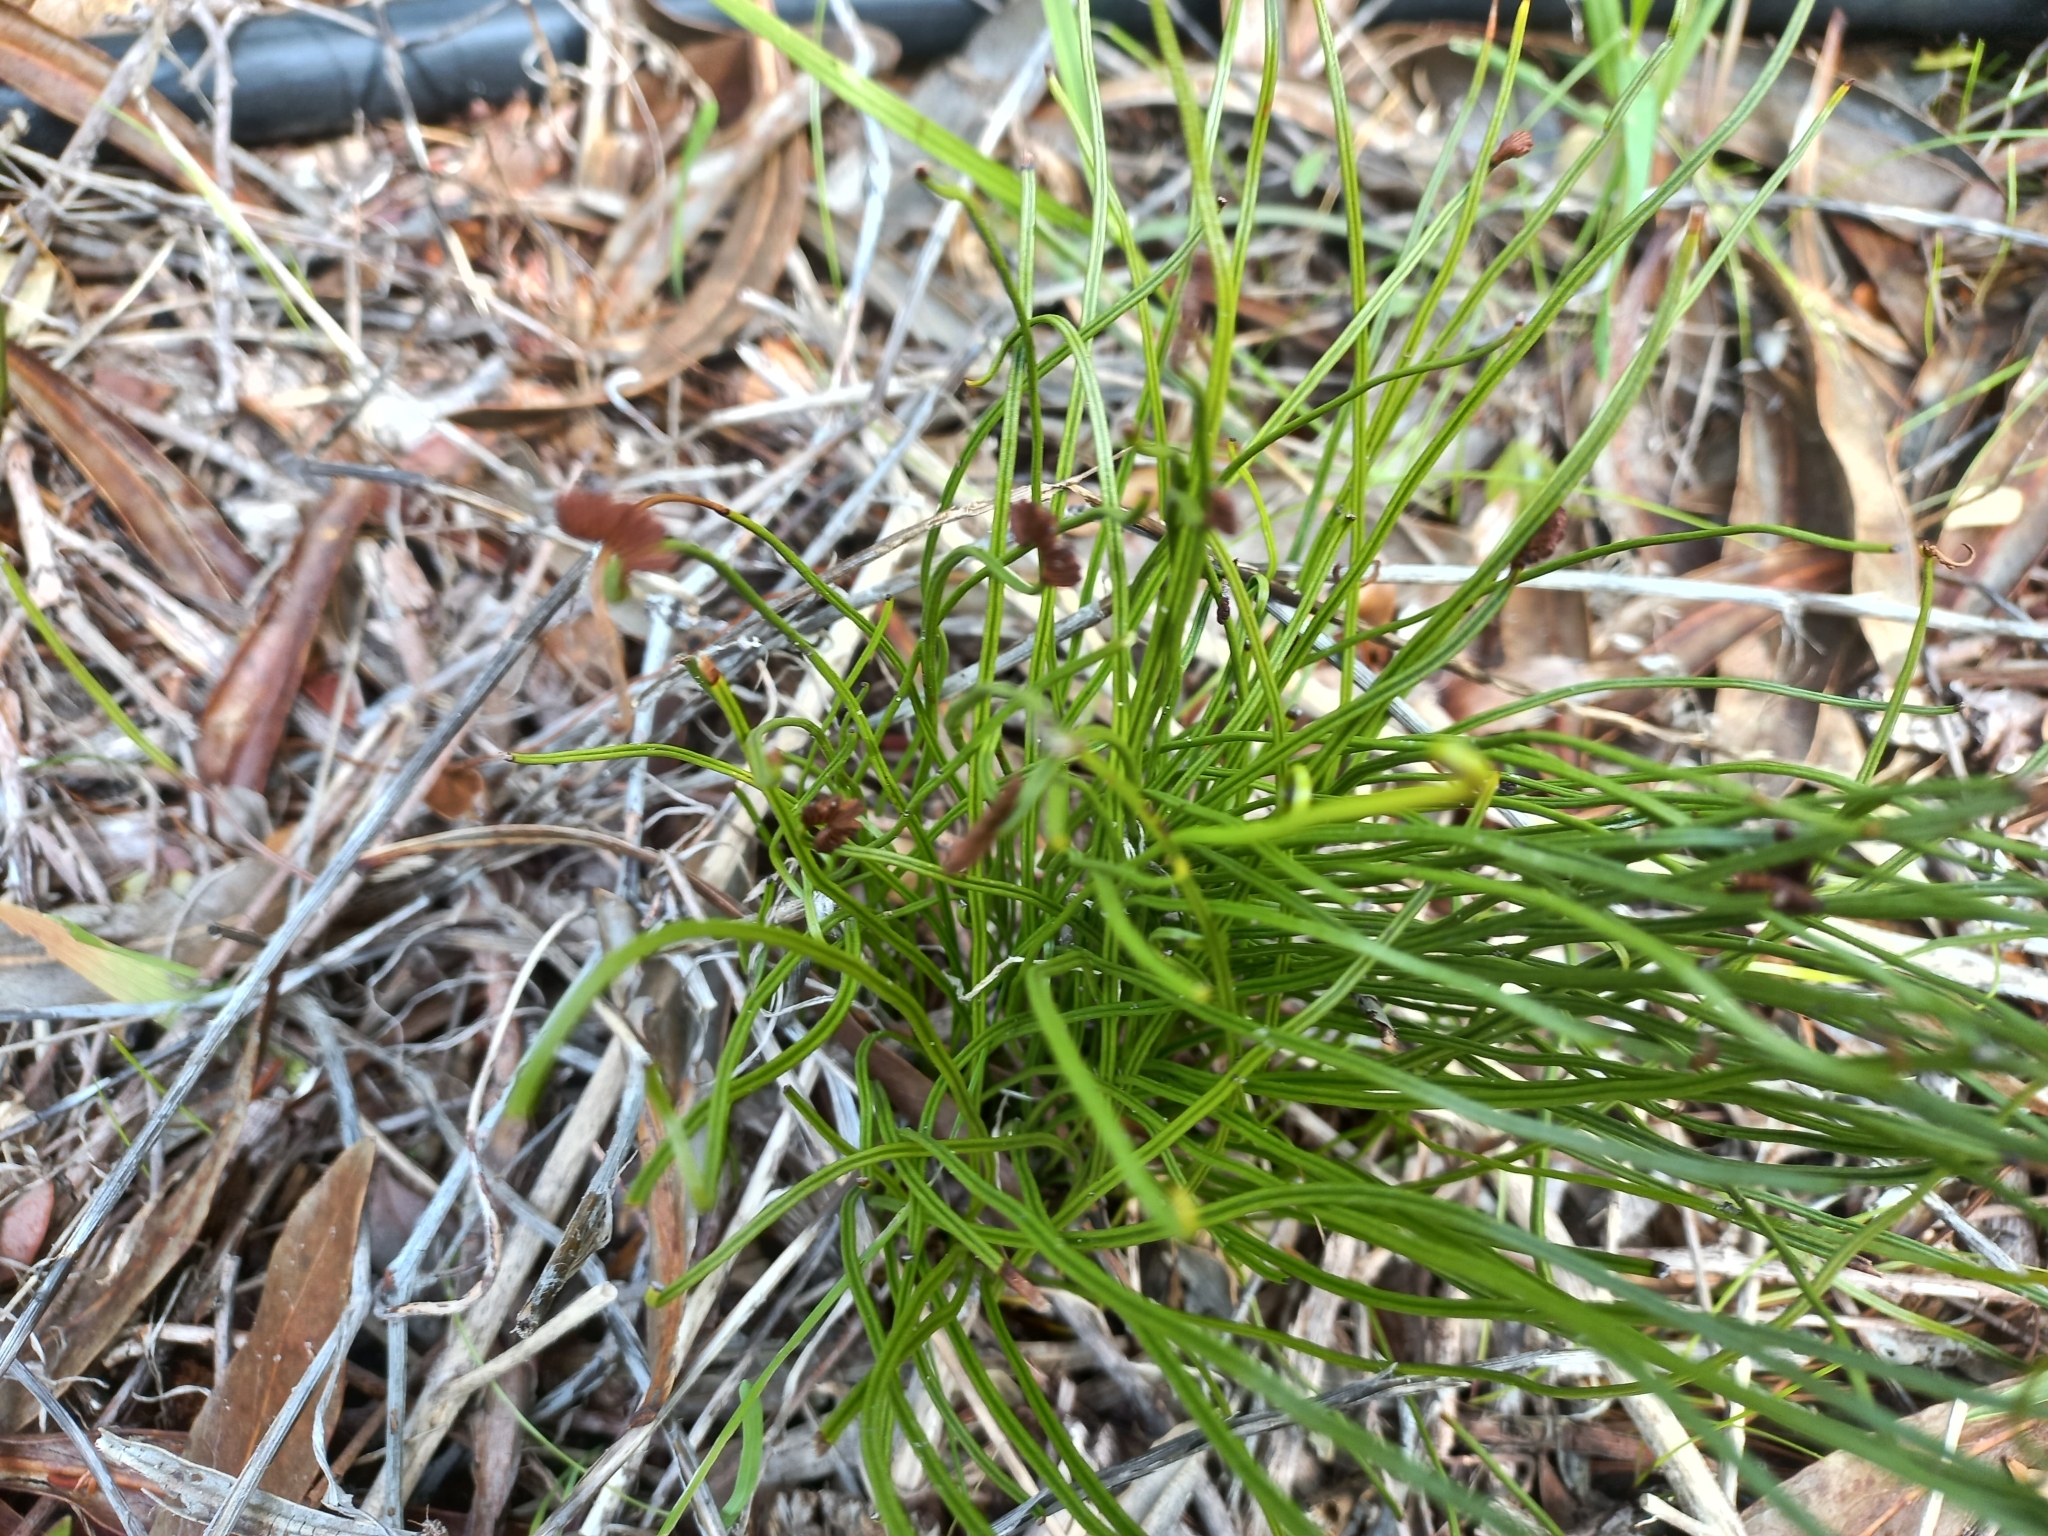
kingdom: Plantae
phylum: Tracheophyta
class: Polypodiopsida
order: Schizaeales
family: Schizaeaceae
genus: Schizaea
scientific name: Schizaea pectinata
